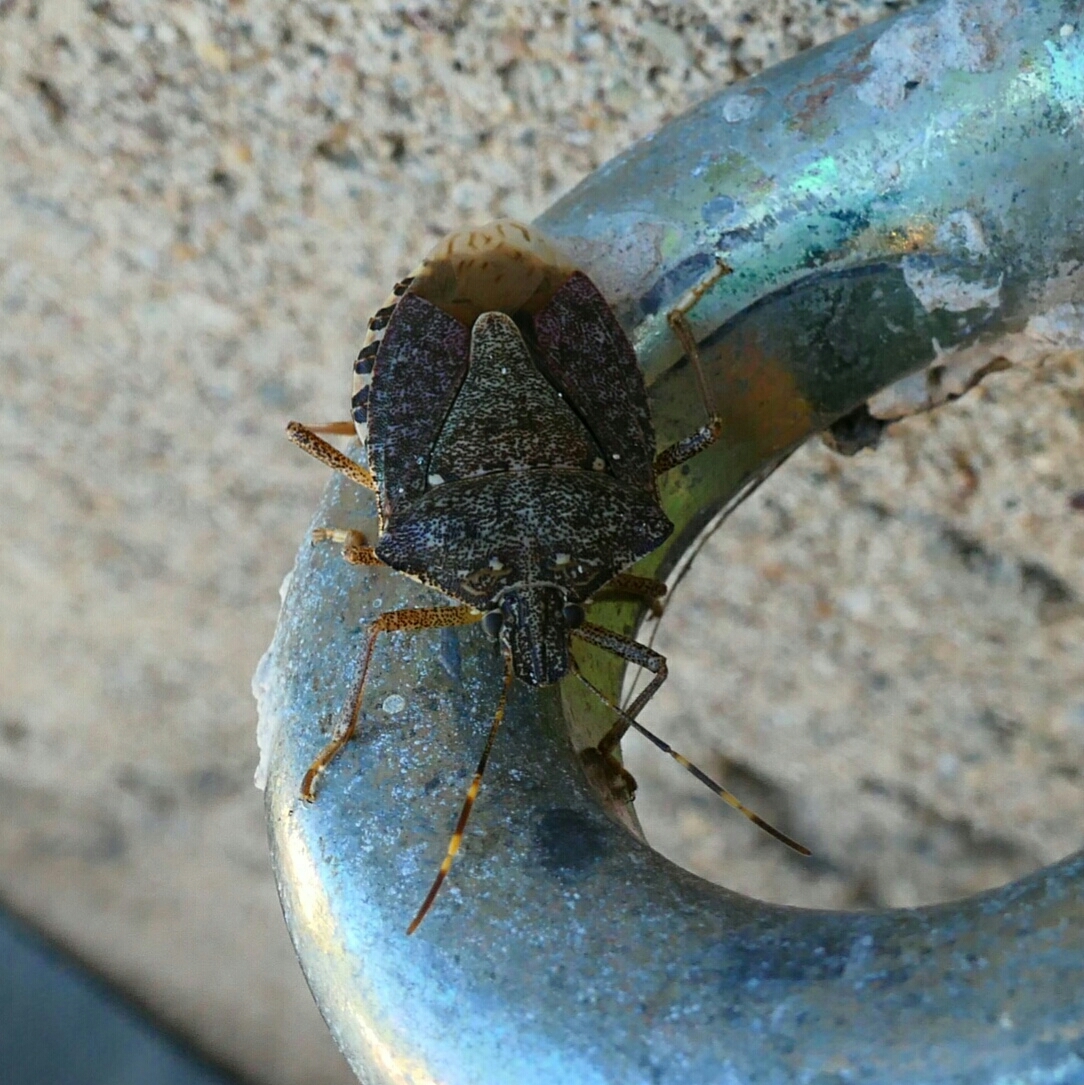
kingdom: Animalia
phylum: Arthropoda
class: Insecta
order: Hemiptera
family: Pentatomidae
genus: Halyomorpha
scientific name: Halyomorpha halys
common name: Brown marmorated stink bug
